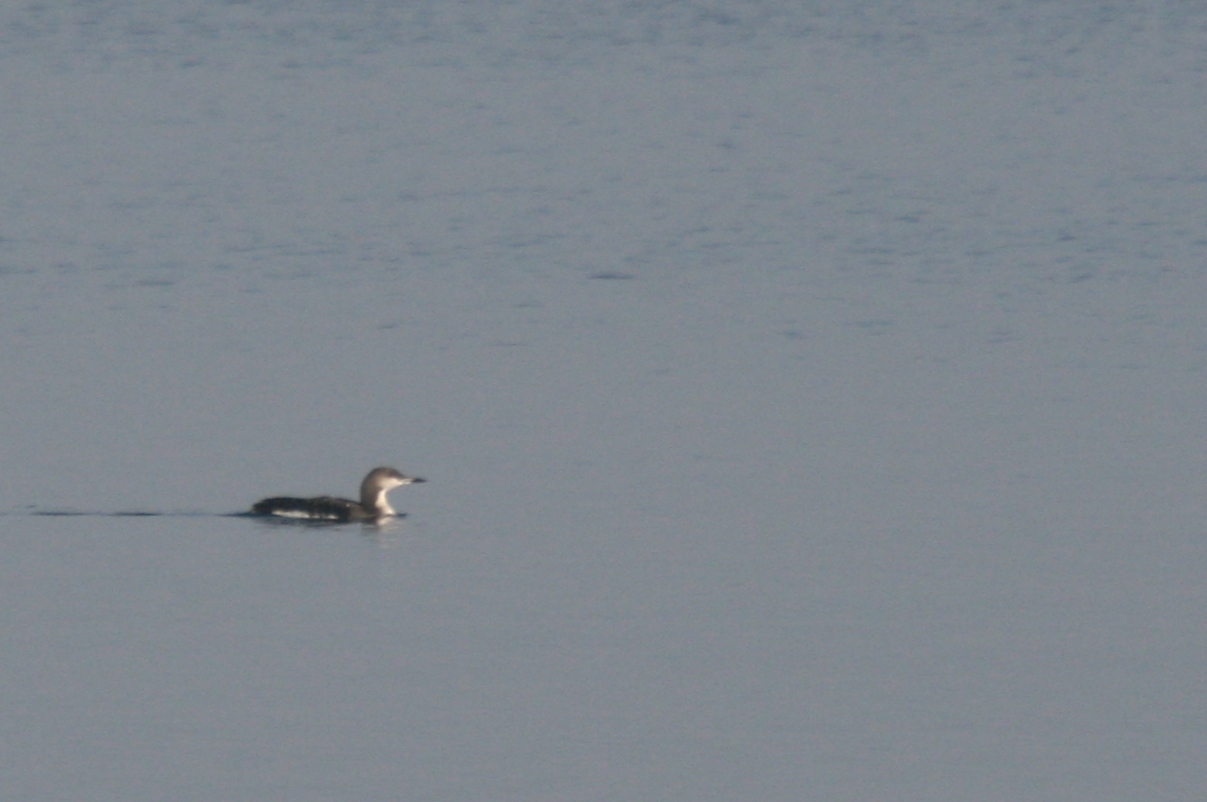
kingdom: Animalia
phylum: Chordata
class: Aves
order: Gaviiformes
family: Gaviidae
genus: Gavia
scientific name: Gavia arctica
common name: Black-throated loon
